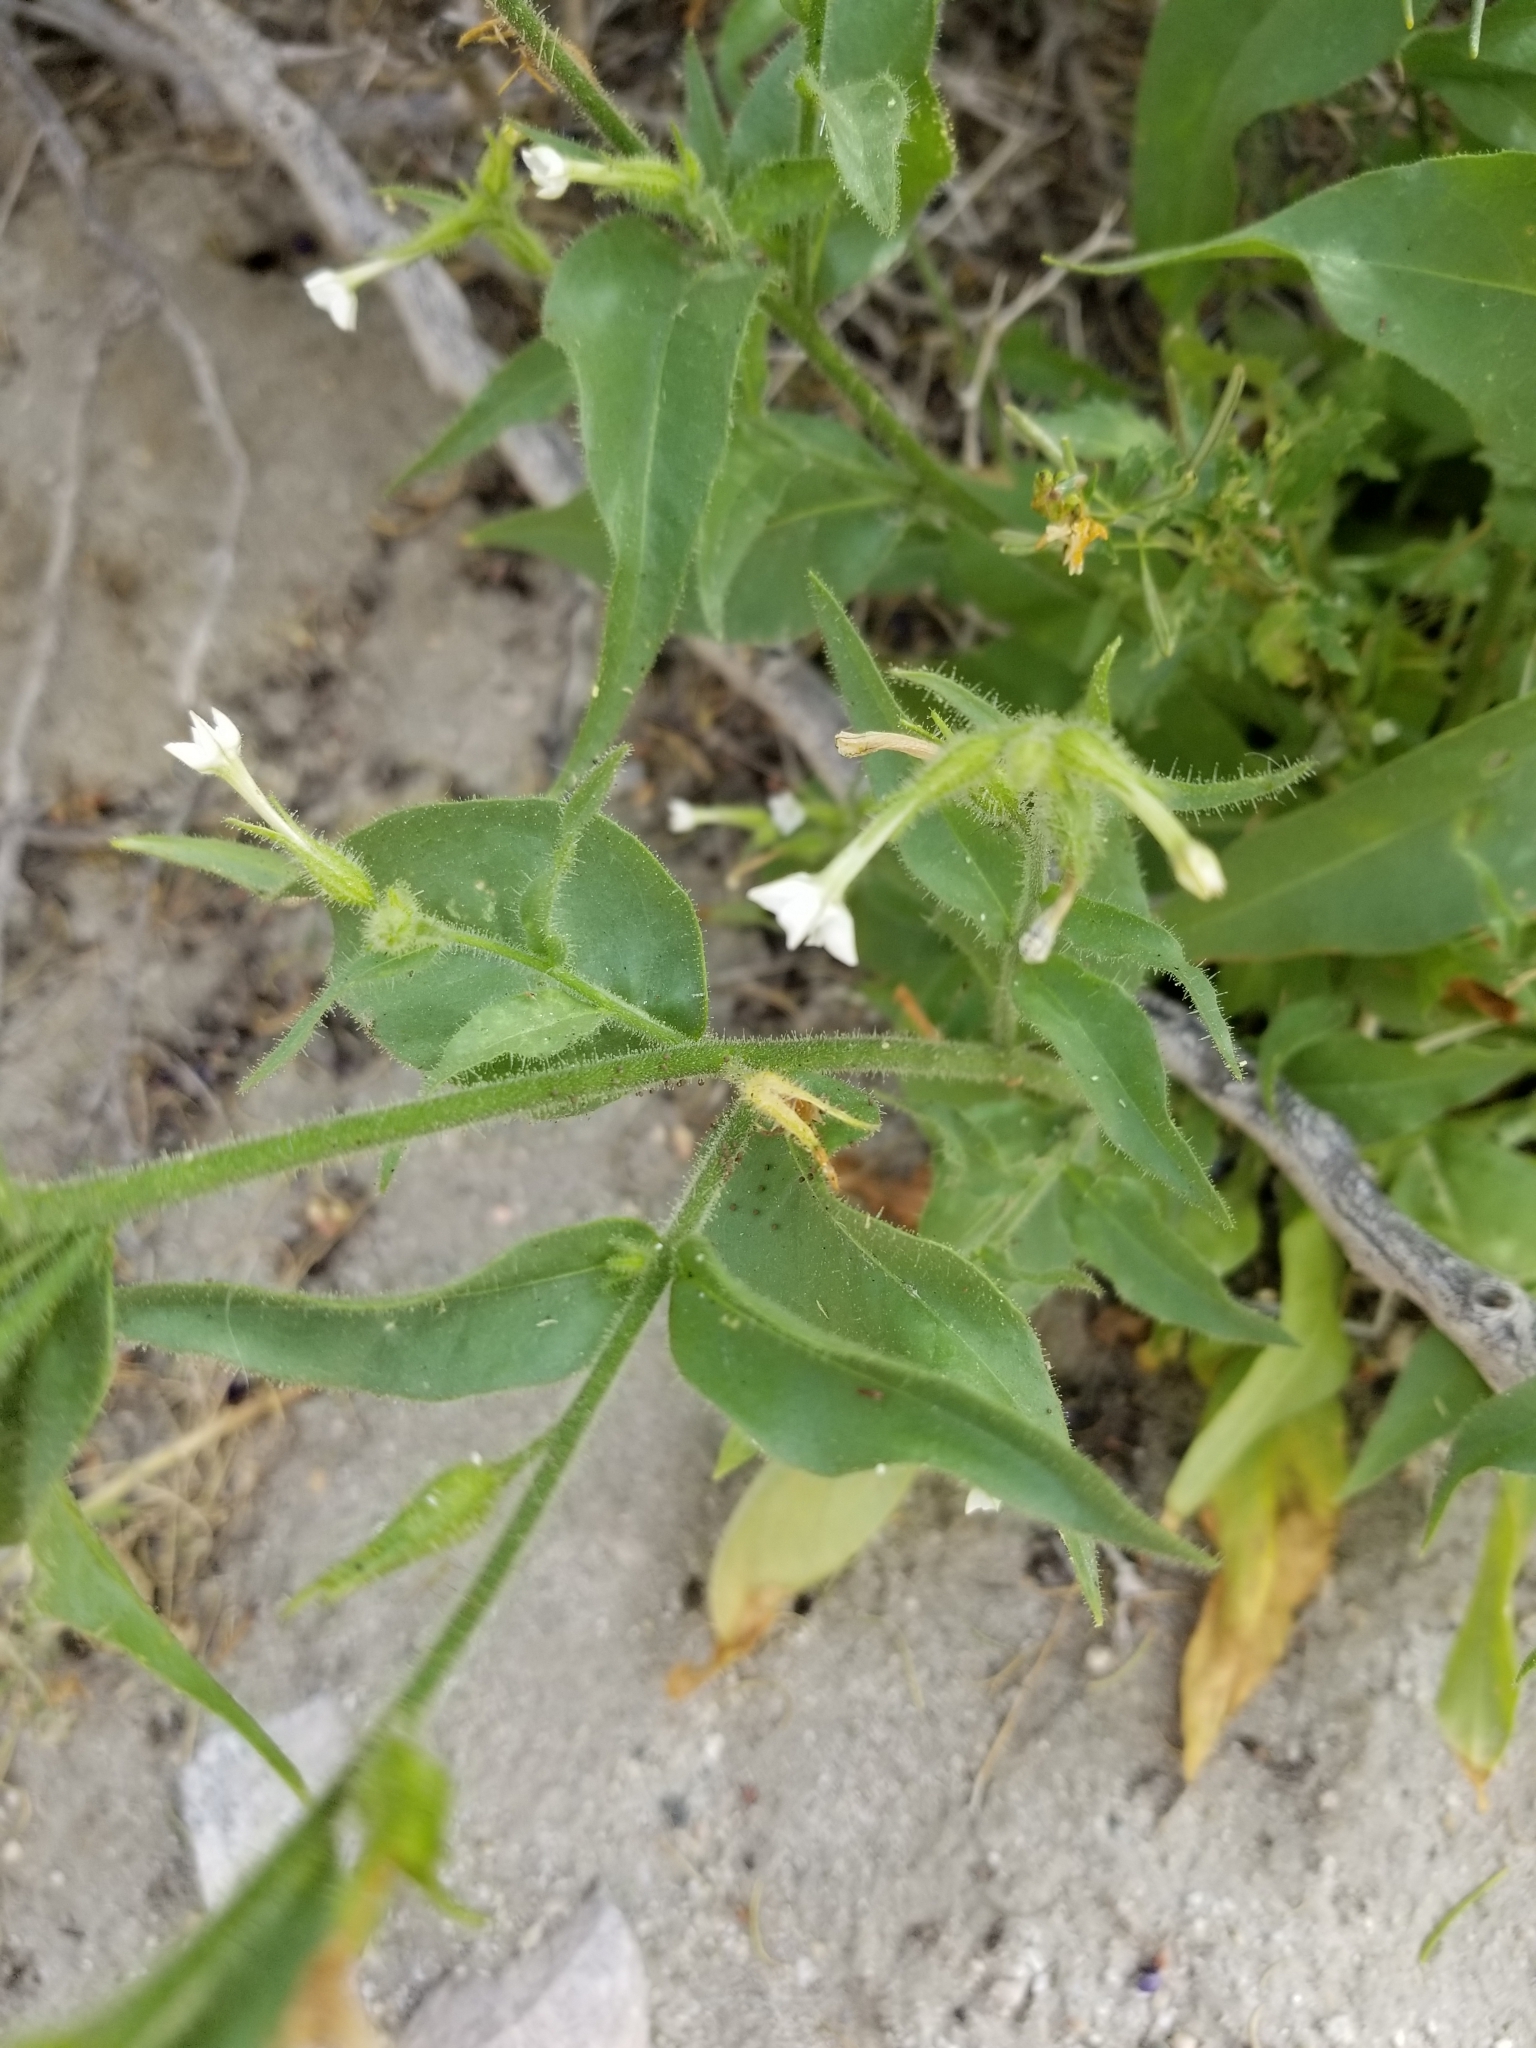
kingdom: Plantae
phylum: Tracheophyta
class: Magnoliopsida
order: Solanales
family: Solanaceae
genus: Nicotiana
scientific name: Nicotiana obtusifolia
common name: Desert tobacco
